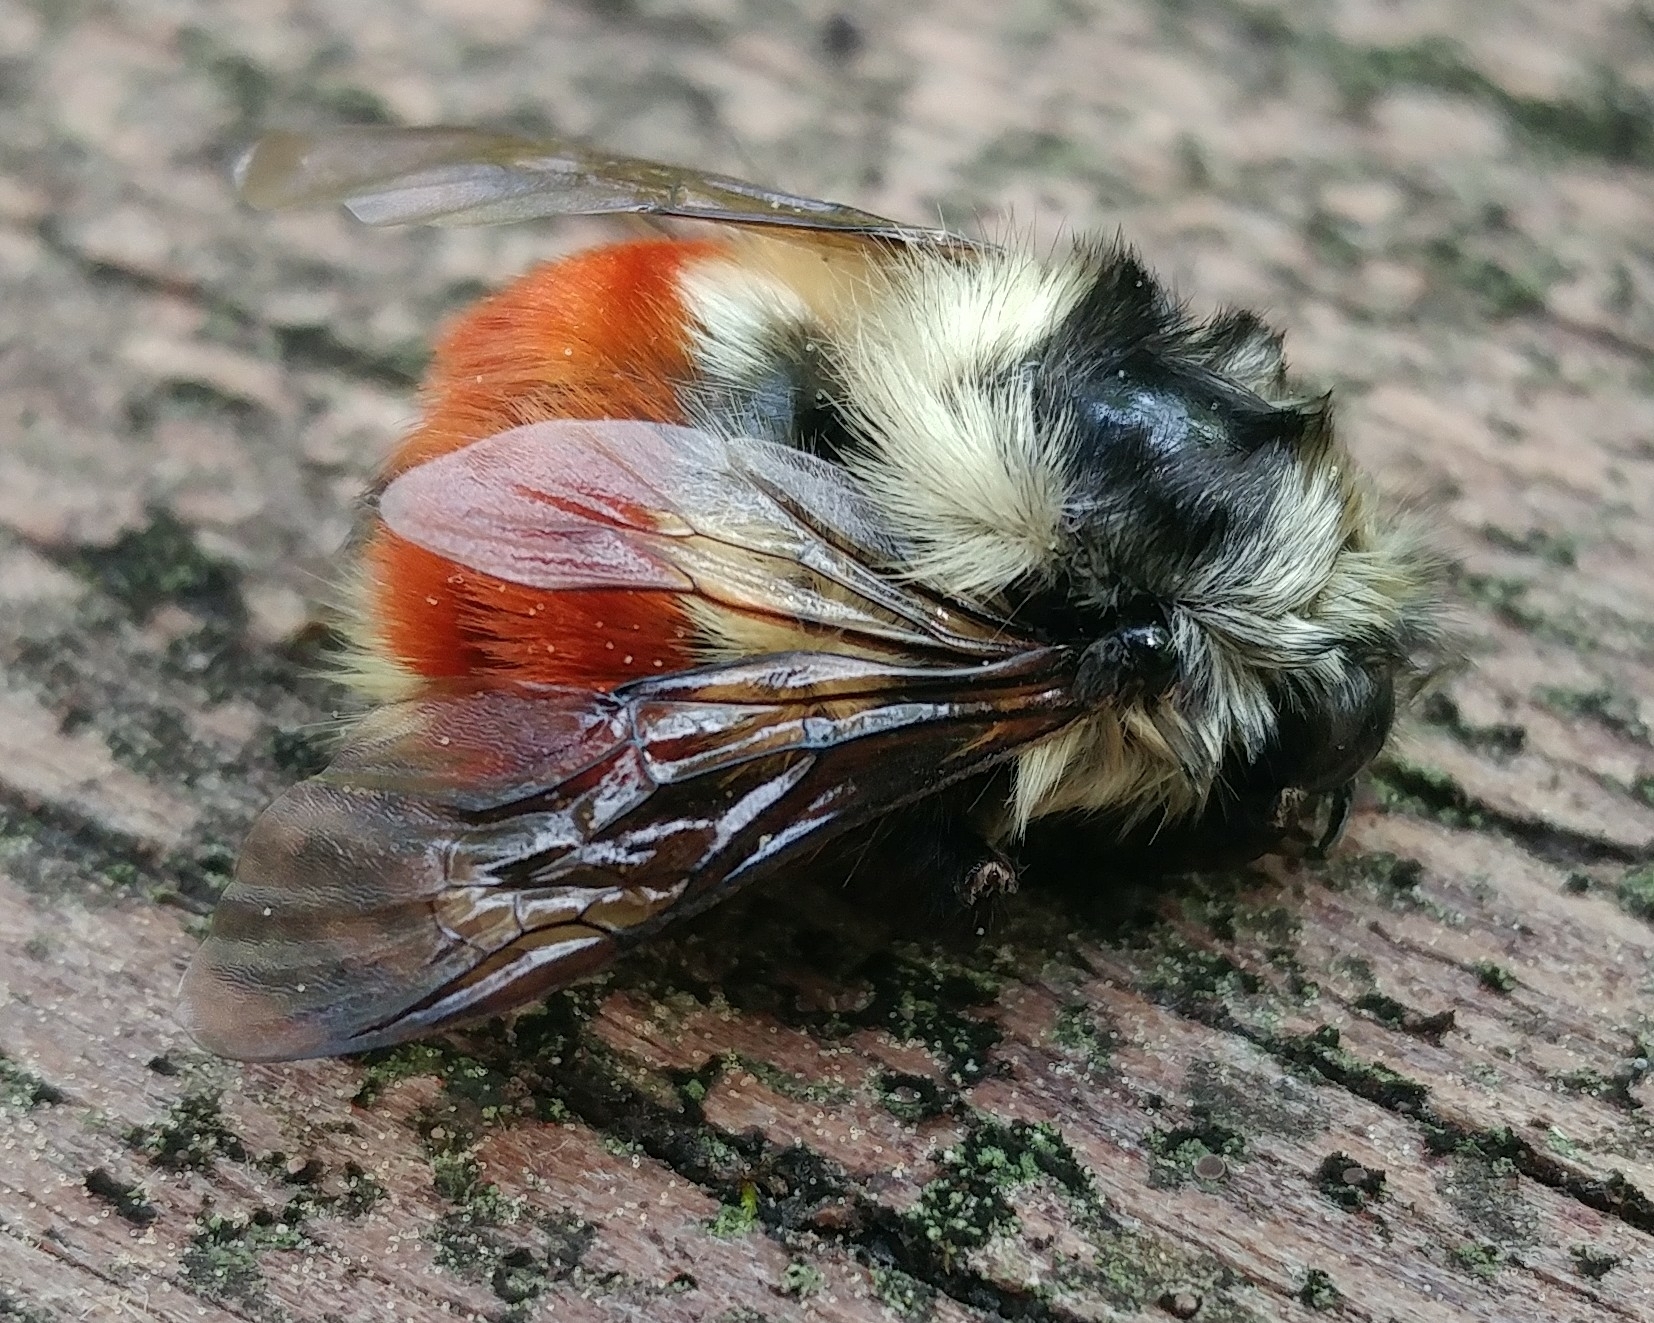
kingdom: Animalia
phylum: Arthropoda
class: Insecta
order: Hymenoptera
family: Apidae
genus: Bombus
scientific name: Bombus melanopygus
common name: Black tail bumble bee
